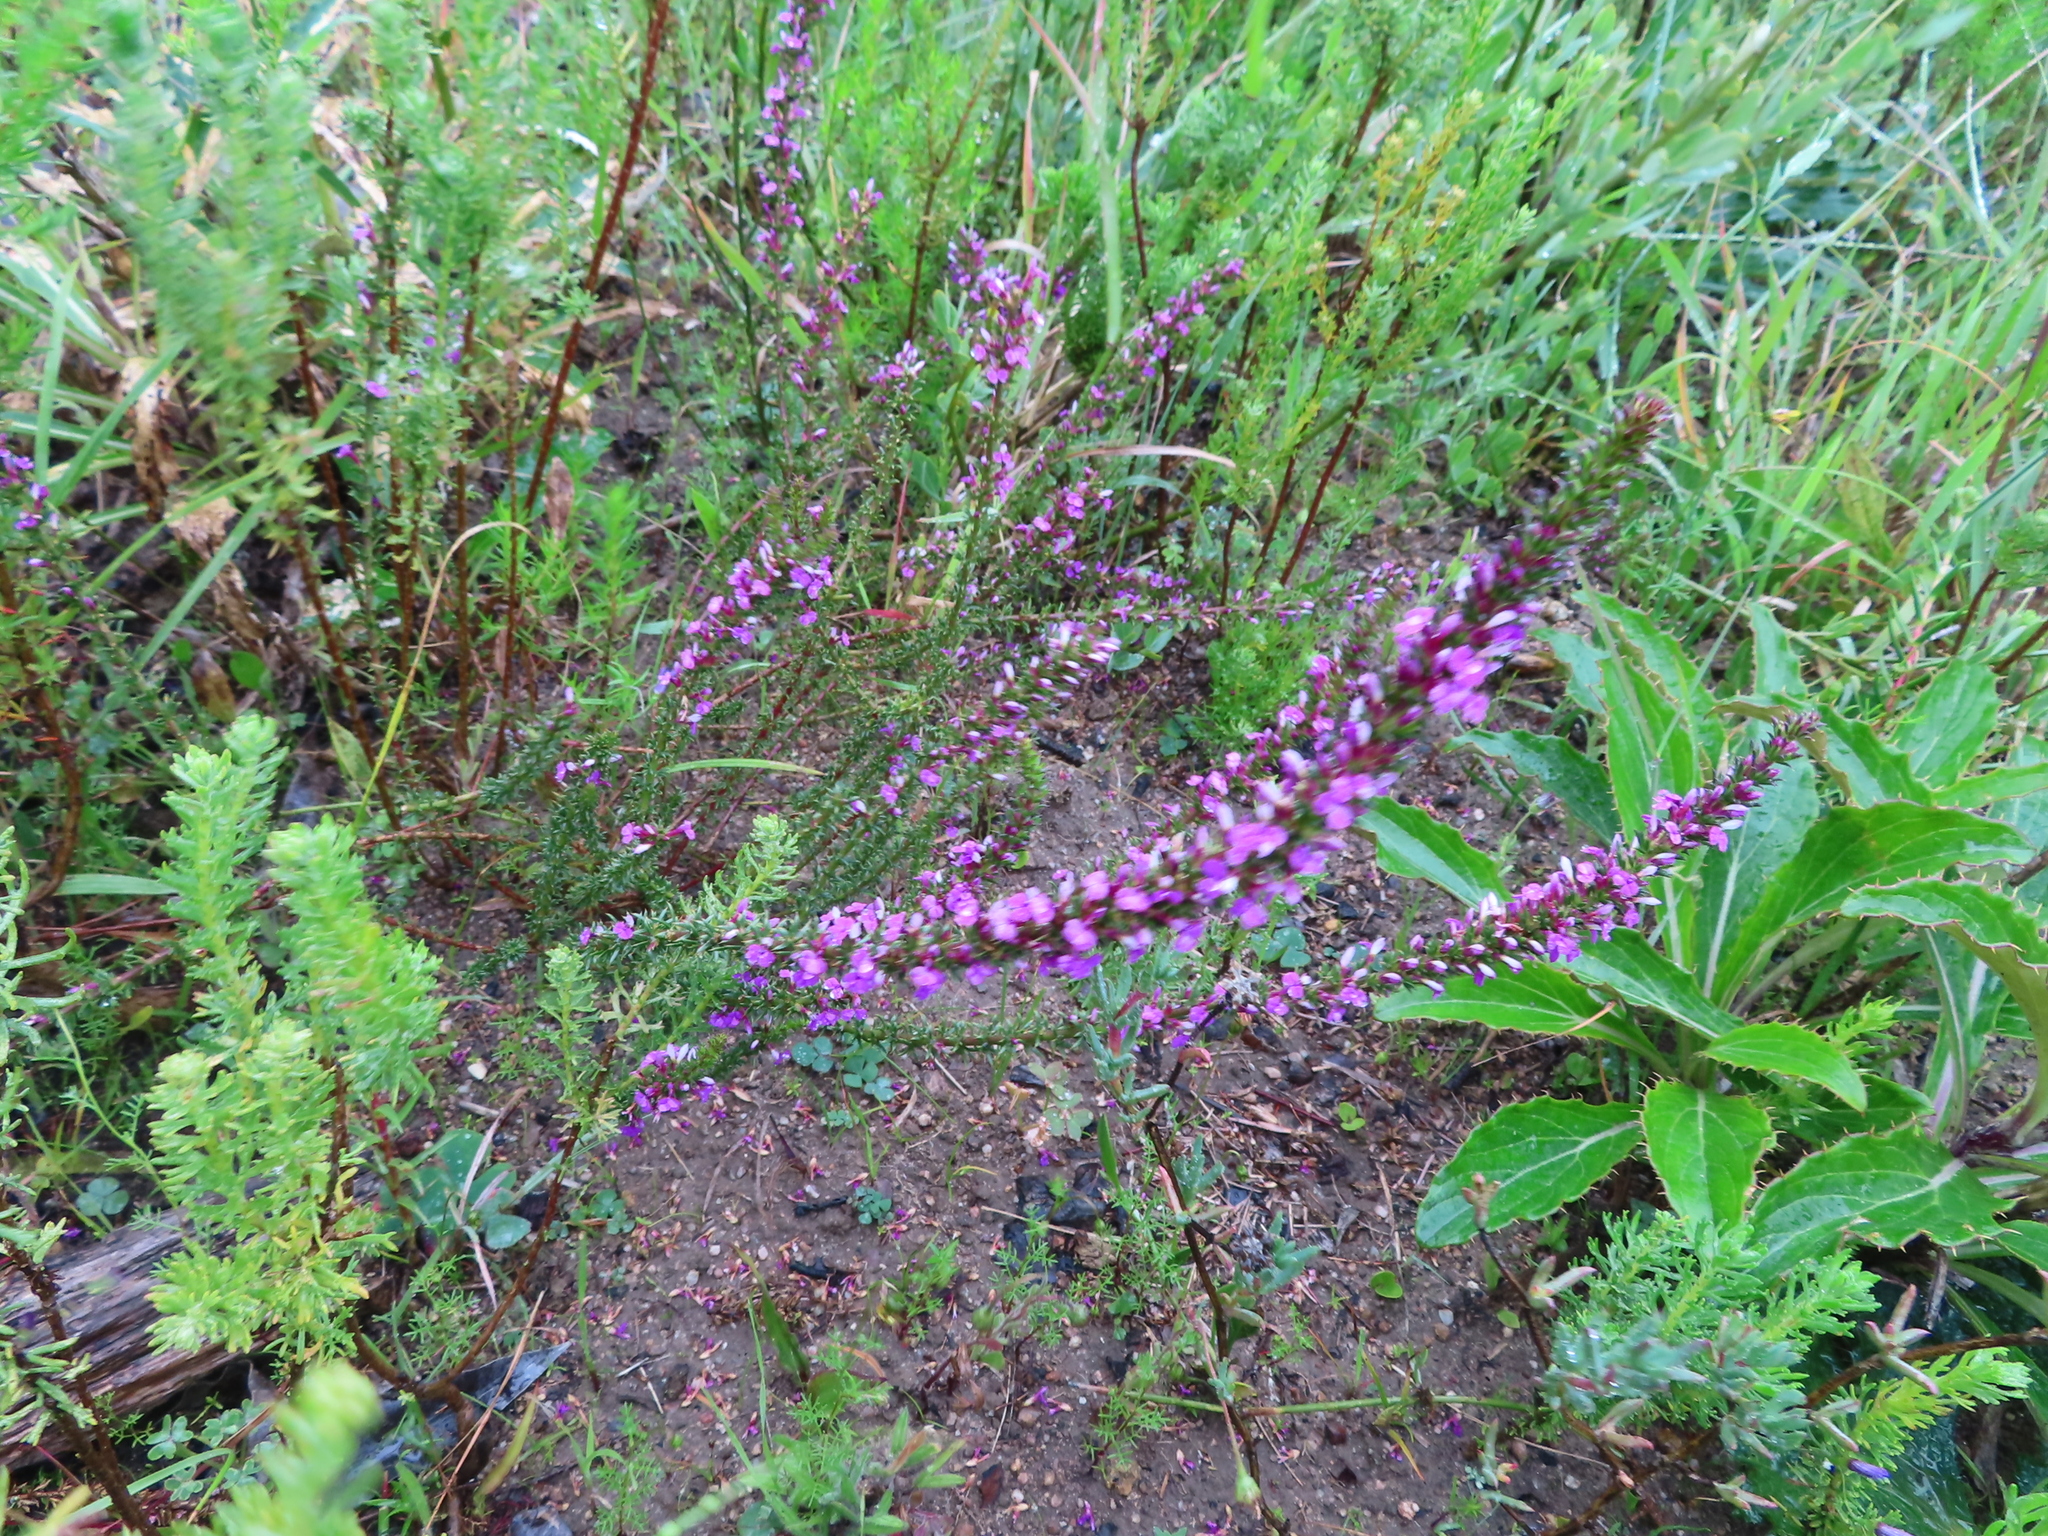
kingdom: Plantae
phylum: Tracheophyta
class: Magnoliopsida
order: Fabales
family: Polygalaceae
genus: Muraltia
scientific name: Muraltia heisteria
